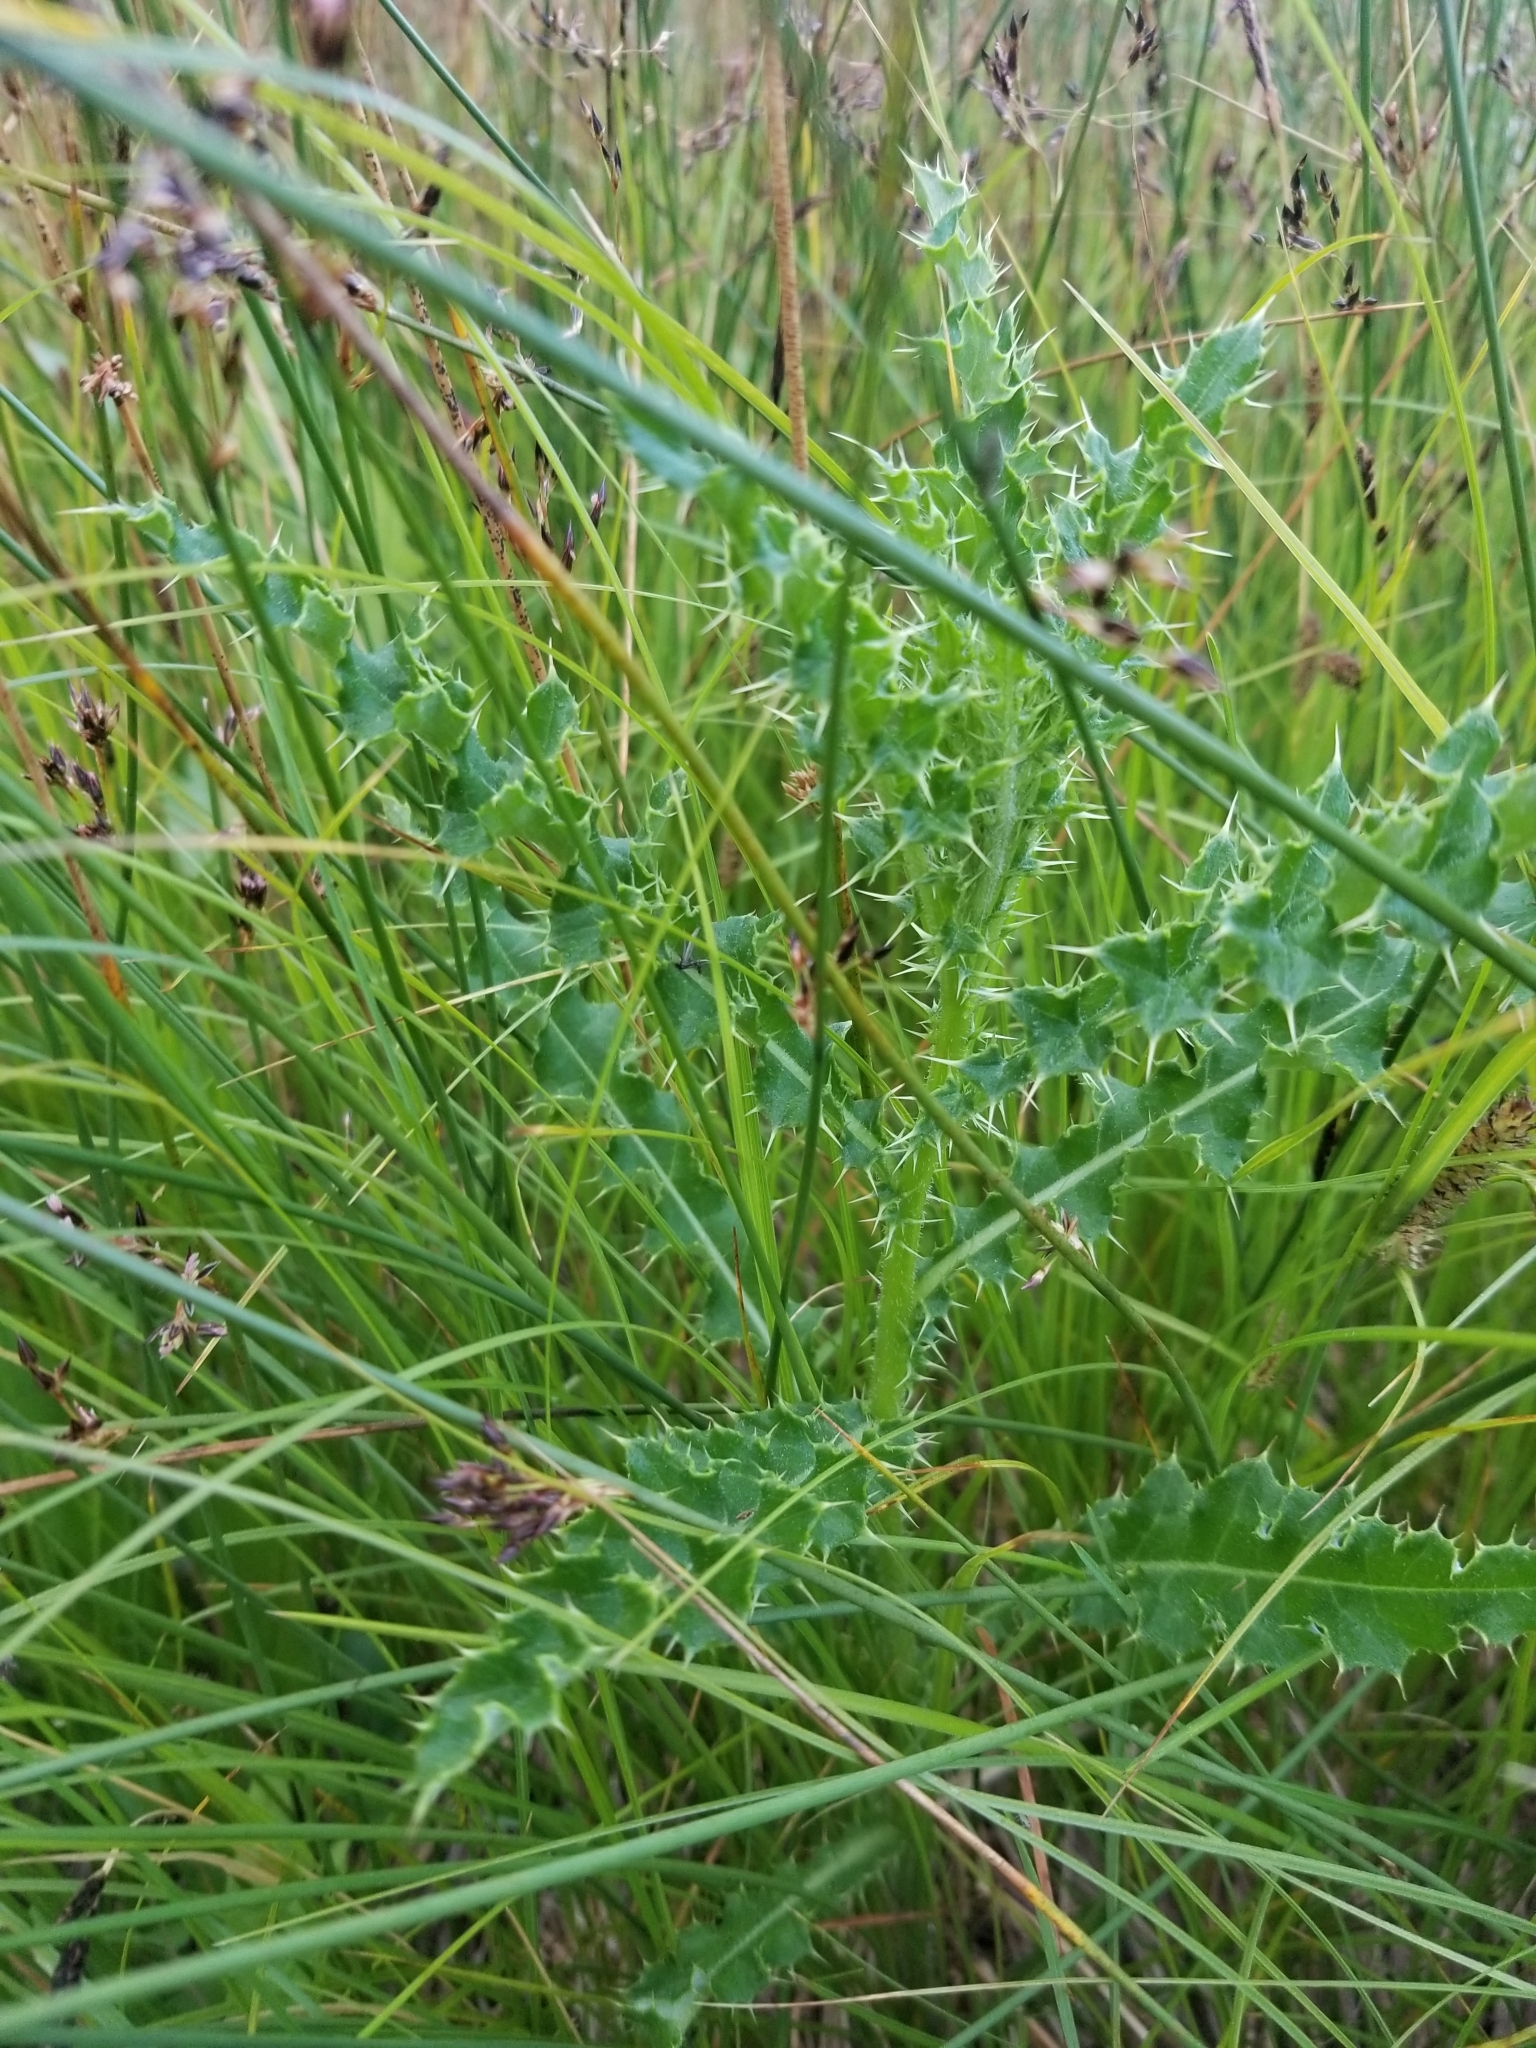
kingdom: Plantae
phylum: Tracheophyta
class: Magnoliopsida
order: Asterales
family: Asteraceae
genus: Cirsium
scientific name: Cirsium arvense
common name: Creeping thistle
